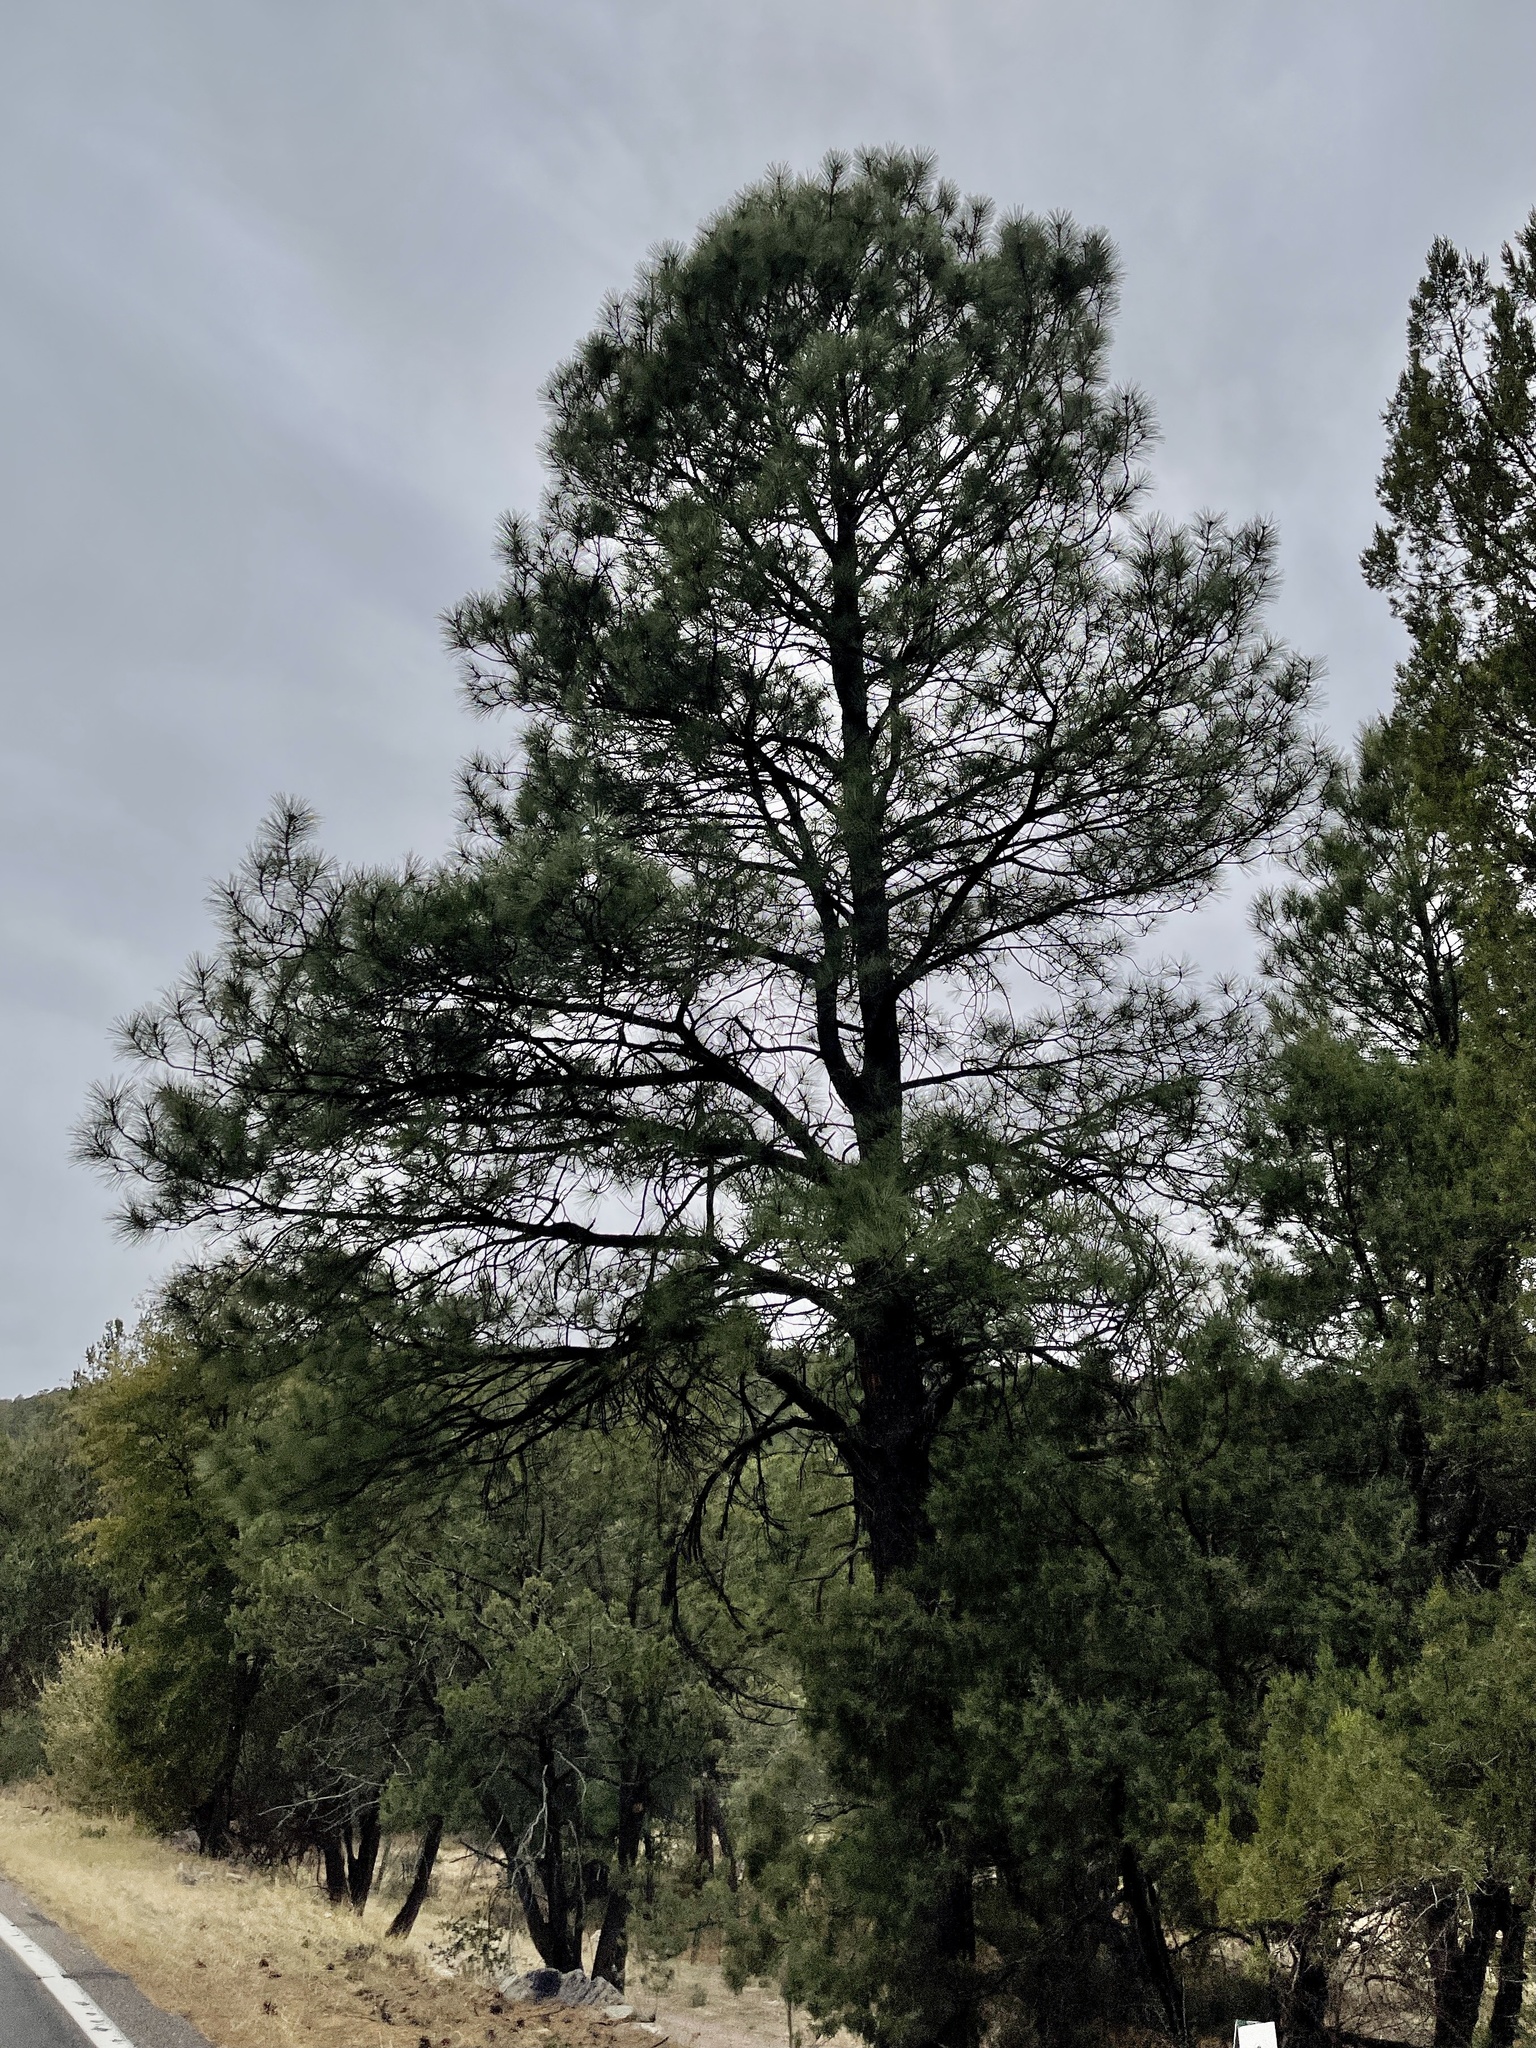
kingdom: Plantae
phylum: Tracheophyta
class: Pinopsida
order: Pinales
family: Pinaceae
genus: Pinus
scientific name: Pinus ponderosa
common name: Western yellow-pine
